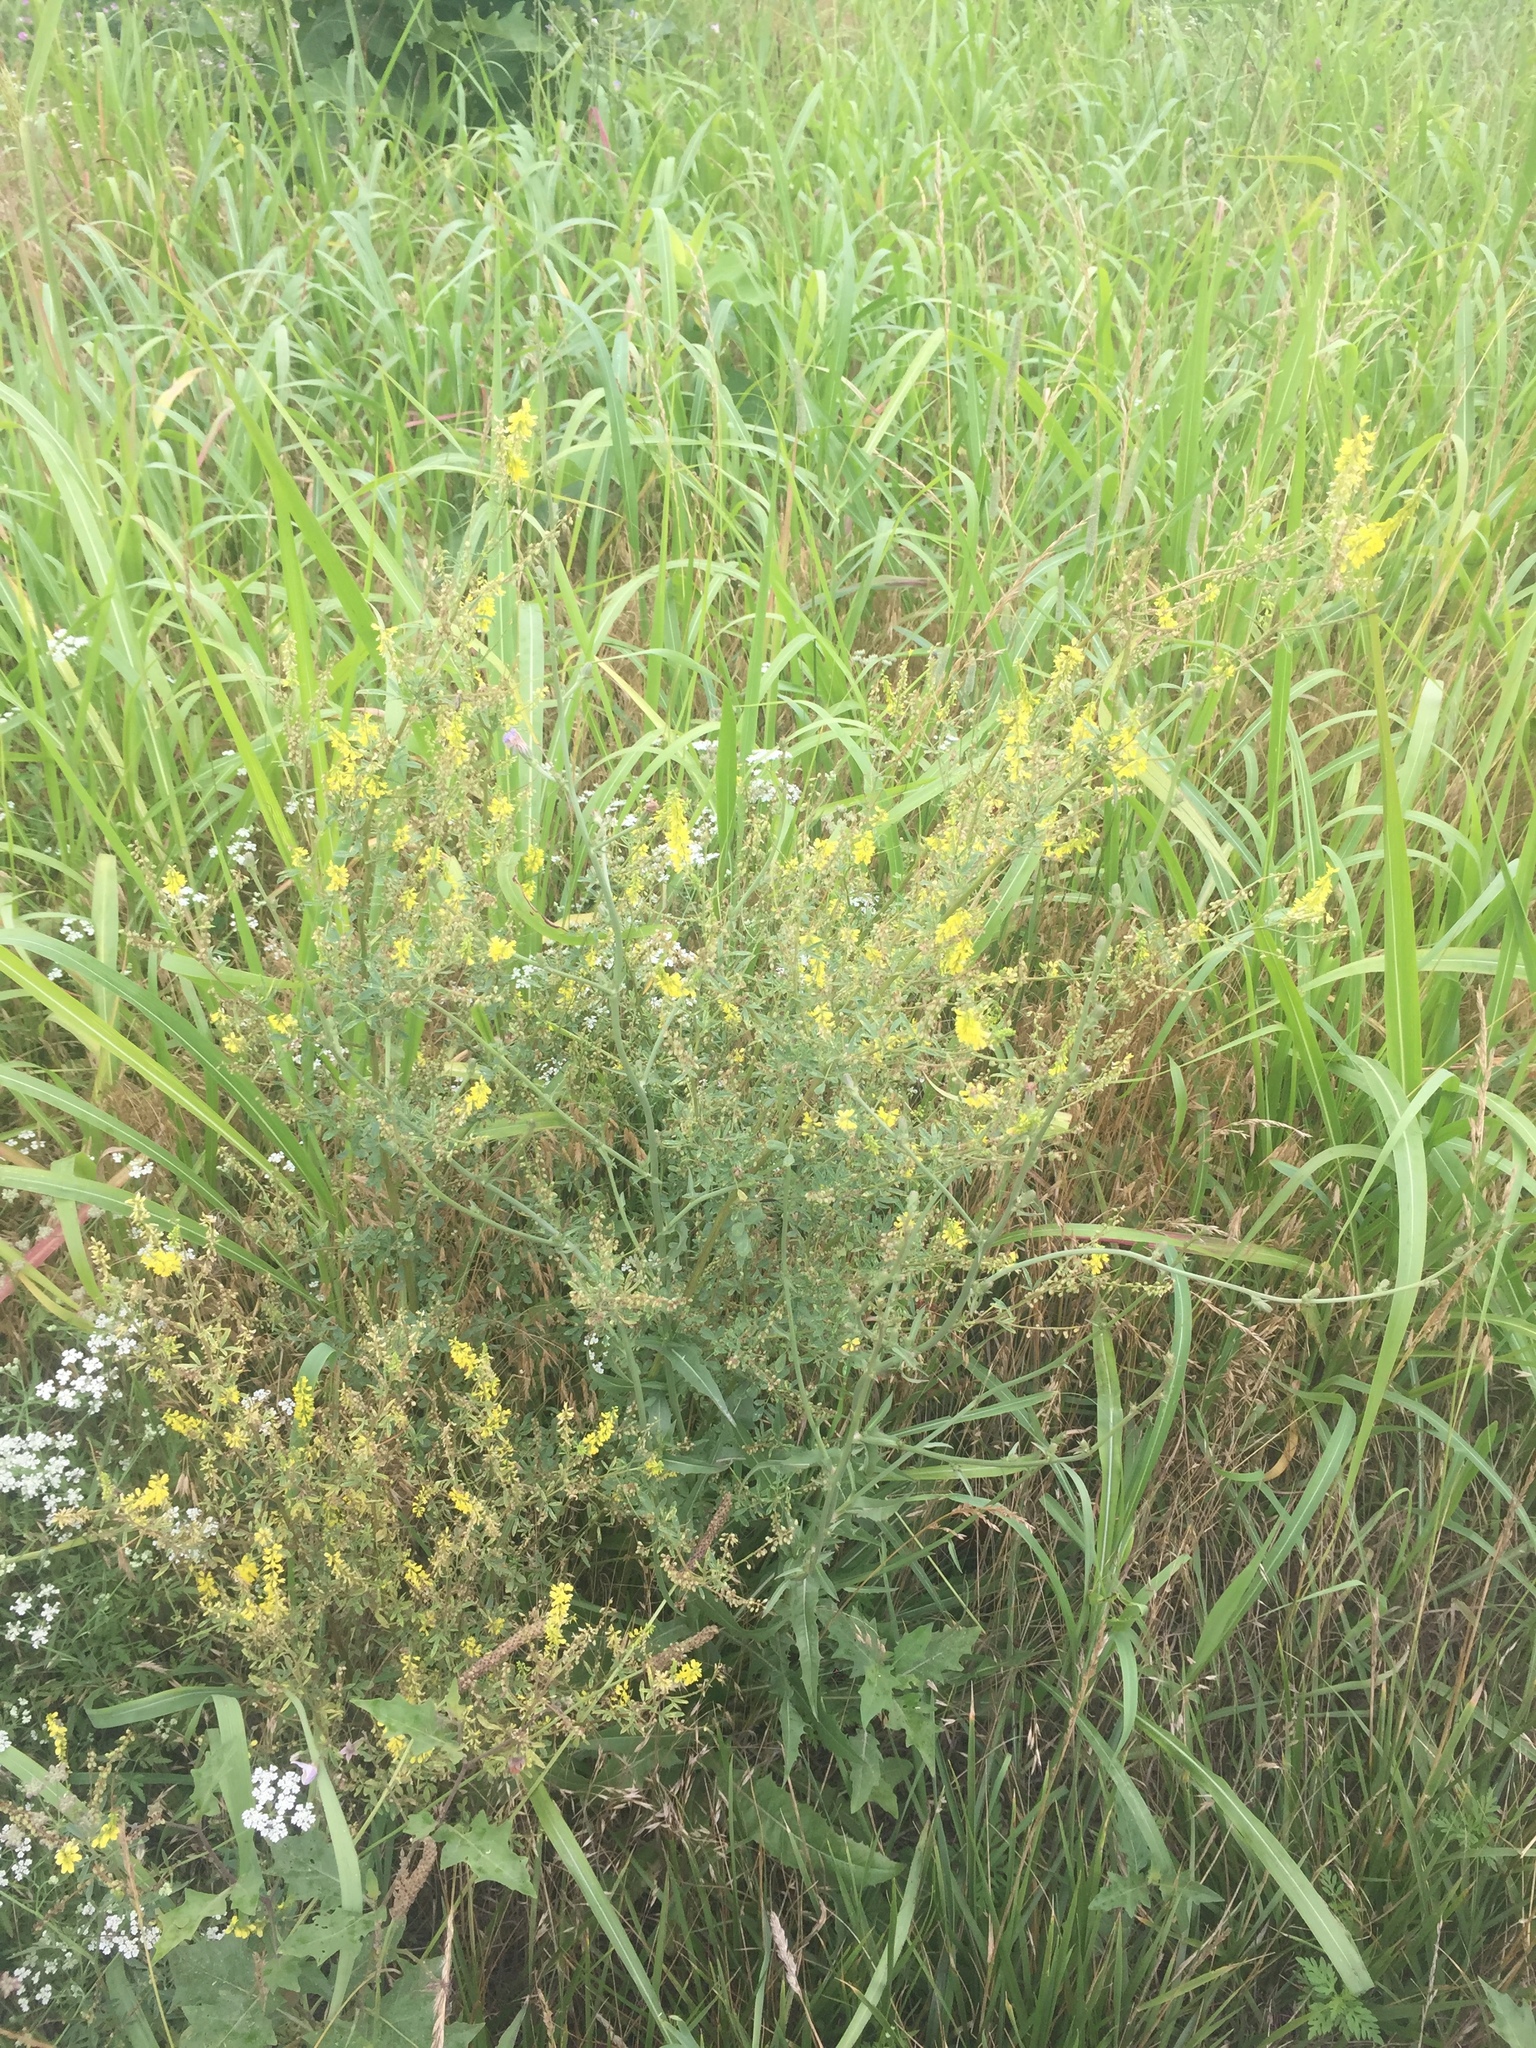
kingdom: Plantae
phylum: Tracheophyta
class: Magnoliopsida
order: Fabales
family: Fabaceae
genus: Melilotus
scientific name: Melilotus officinalis
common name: Sweetclover
